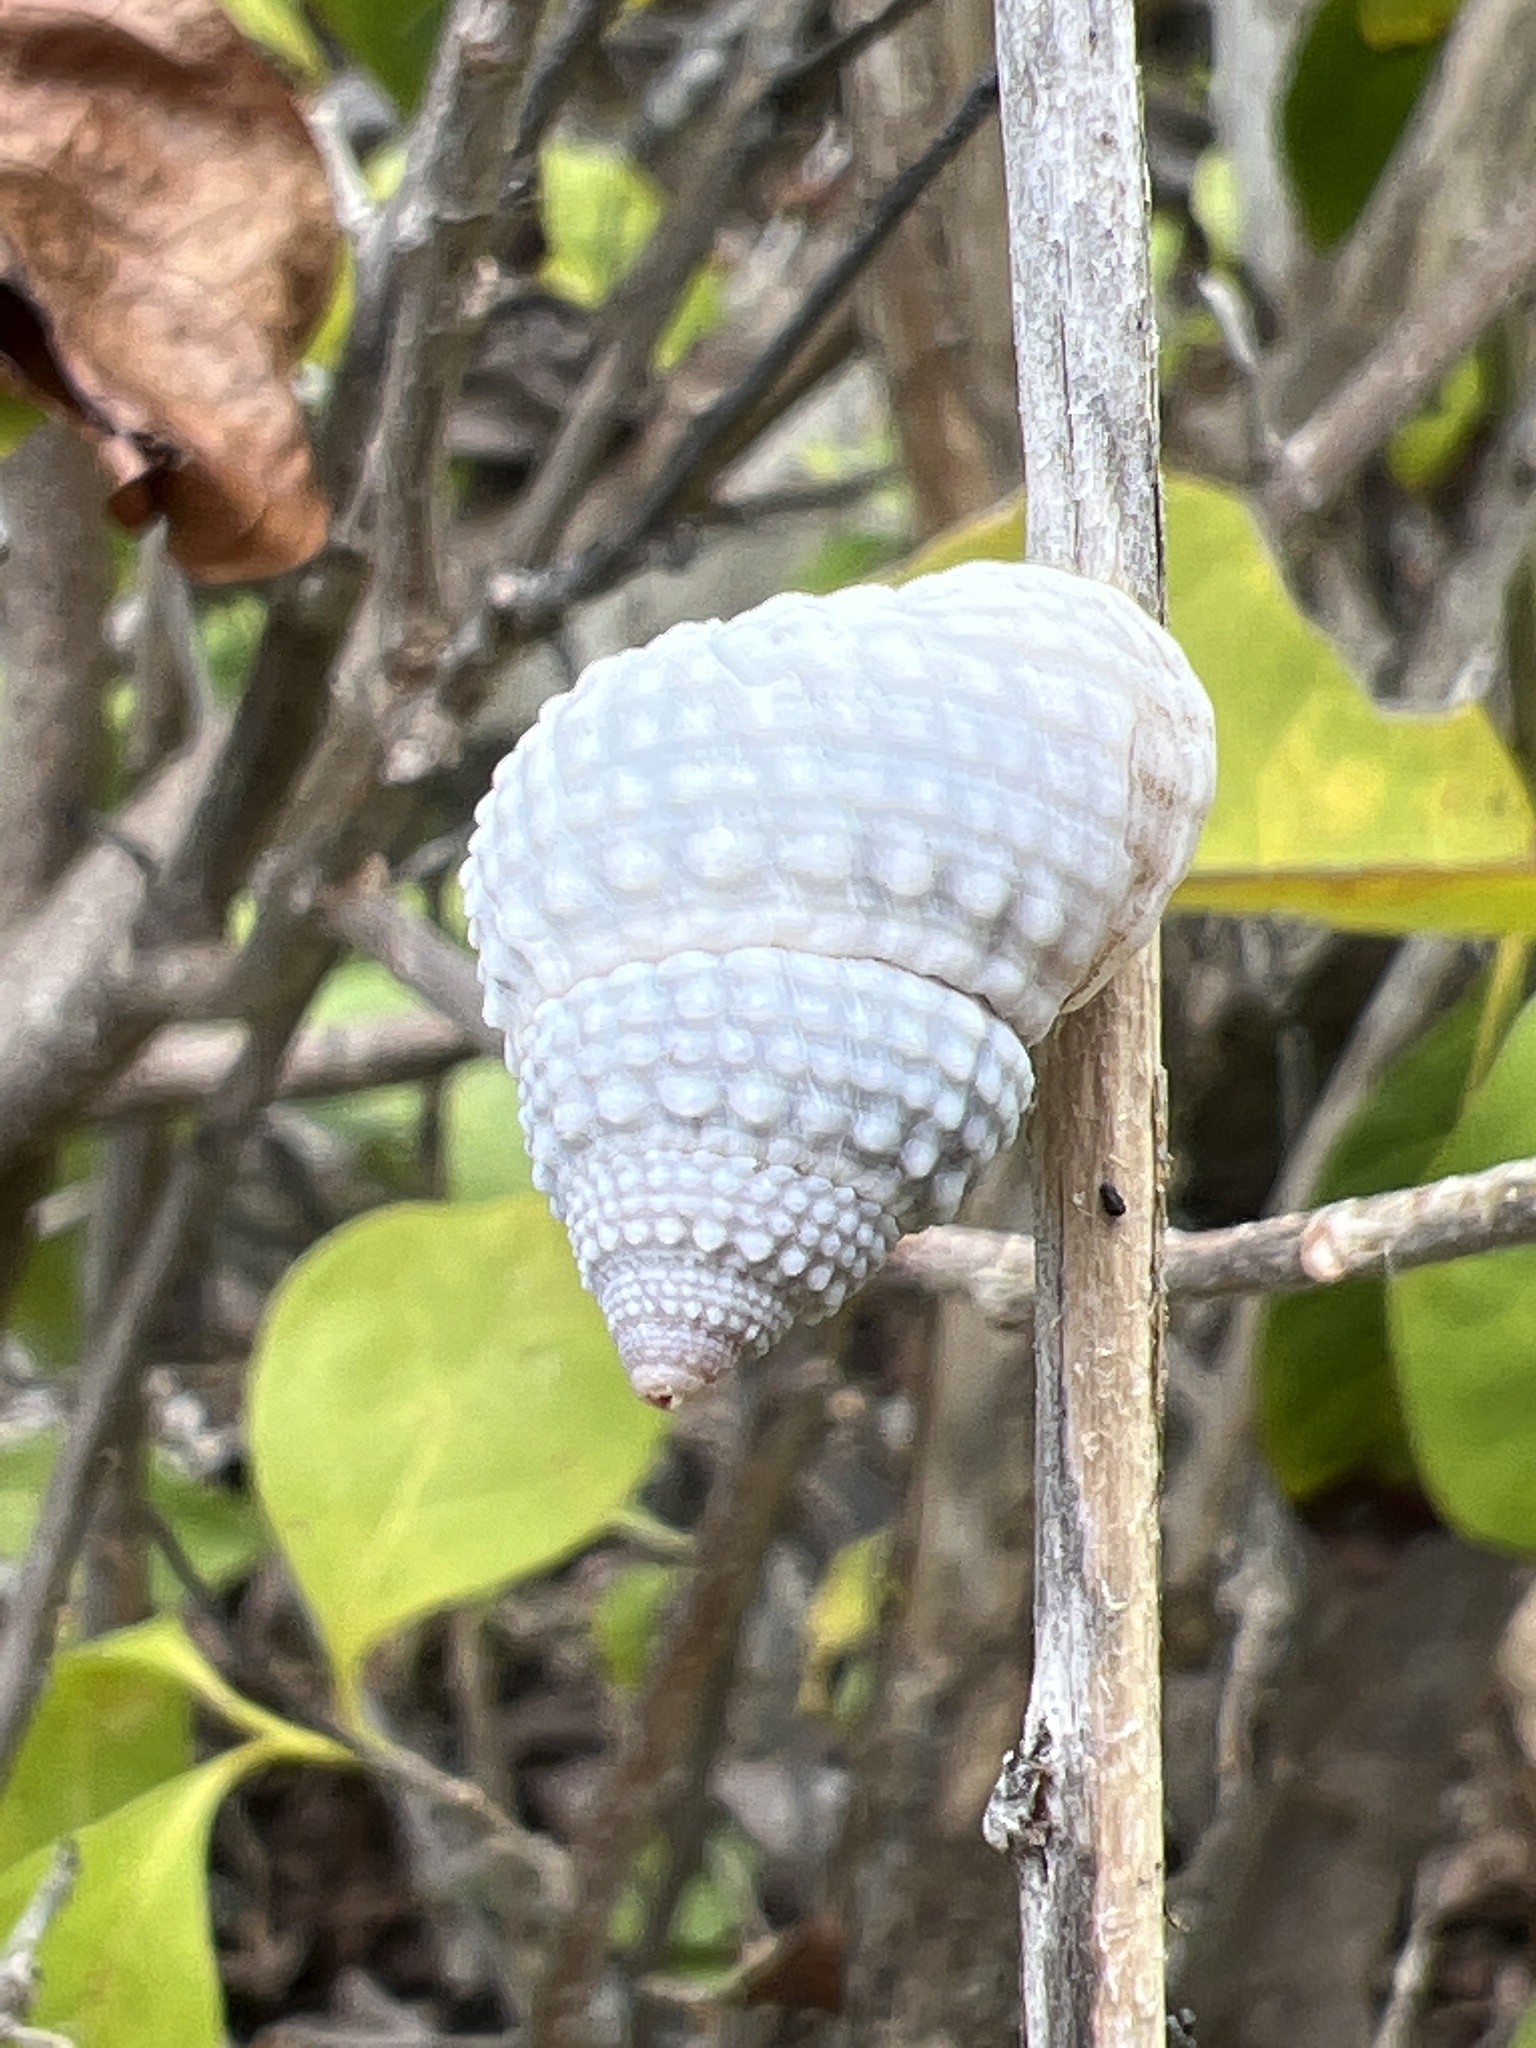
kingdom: Animalia
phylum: Mollusca
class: Gastropoda
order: Littorinimorpha
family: Littorinidae
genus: Cenchritis
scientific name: Cenchritis muricatus
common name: Beaded periwinkle
